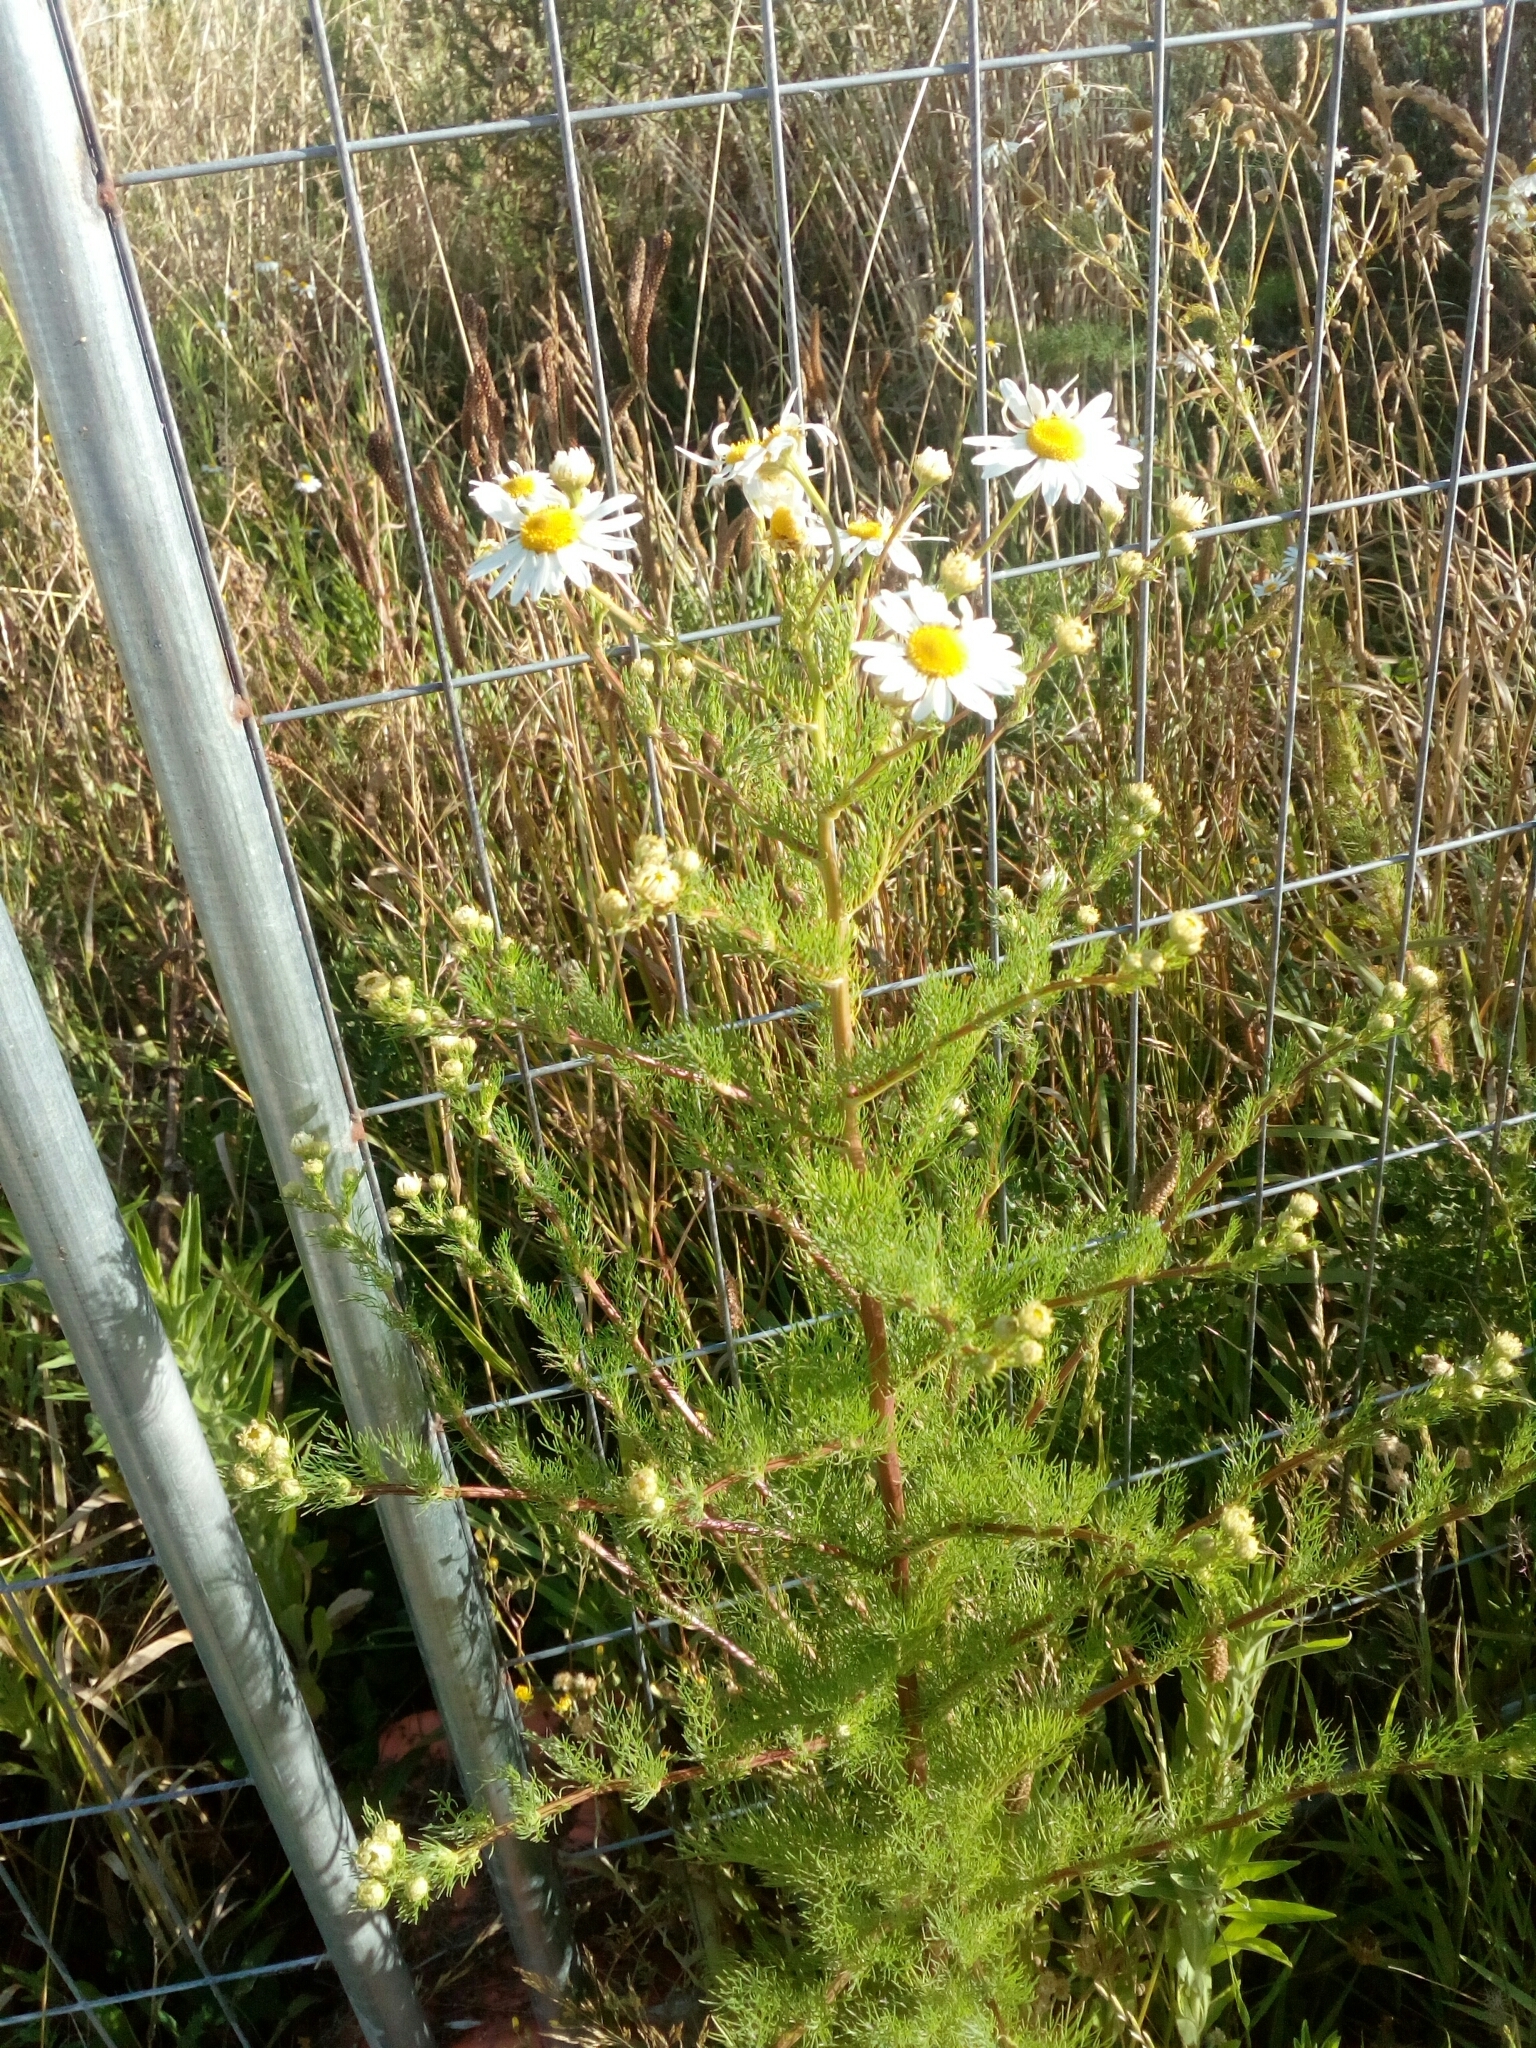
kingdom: Plantae
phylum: Tracheophyta
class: Magnoliopsida
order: Asterales
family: Asteraceae
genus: Tripleurospermum
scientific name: Tripleurospermum inodorum
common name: Scentless mayweed
